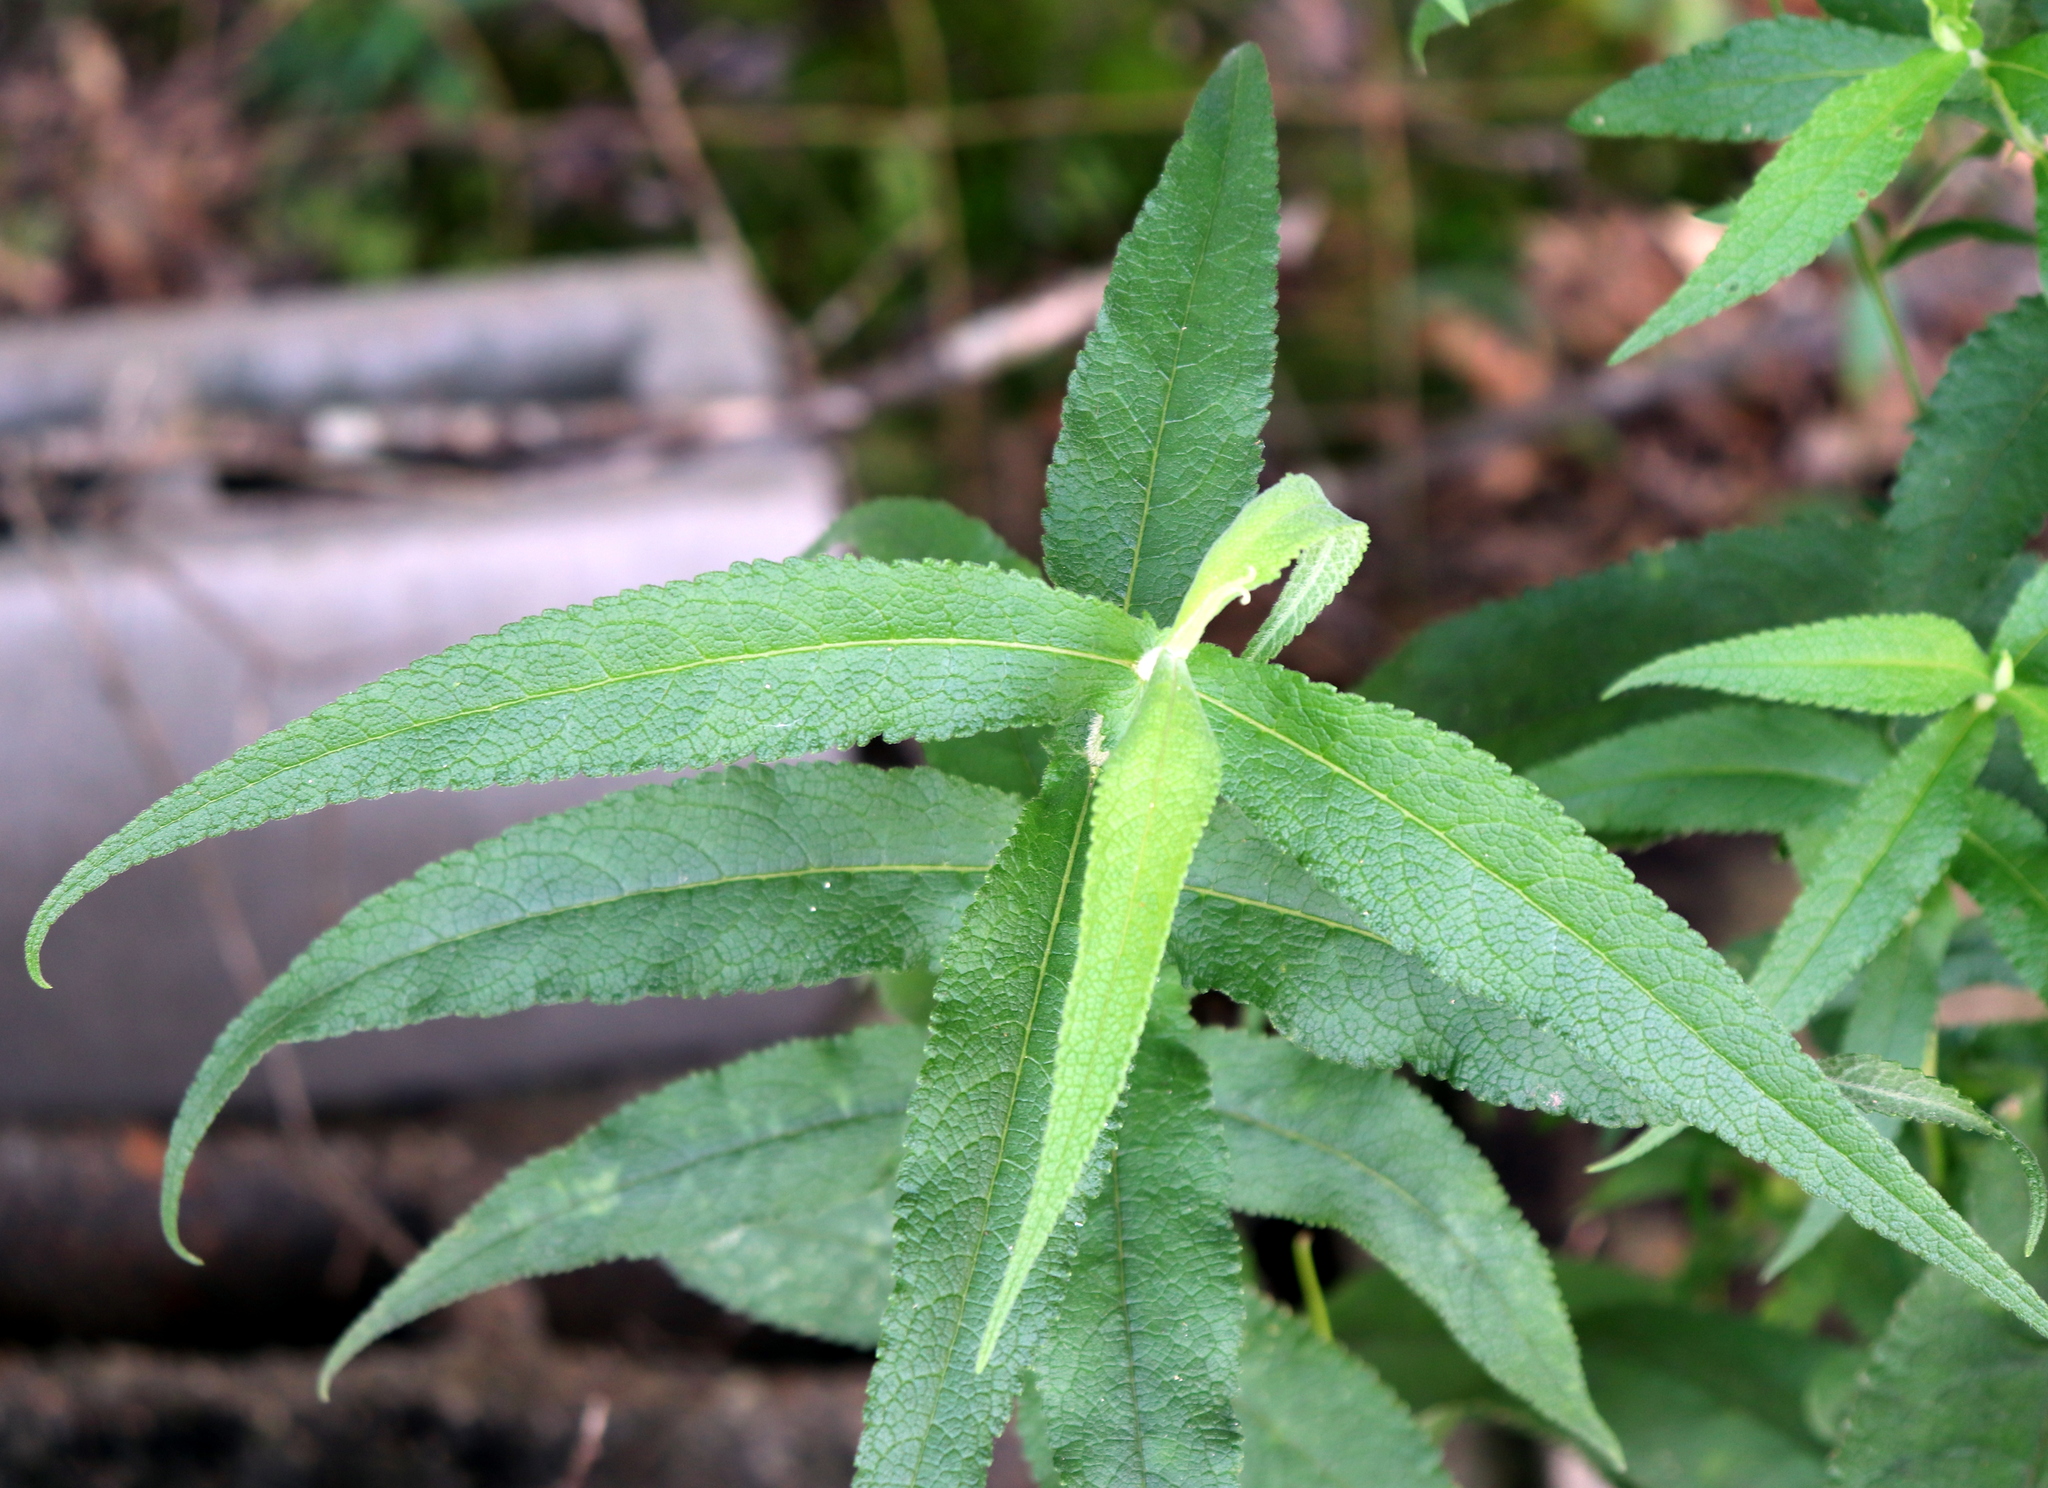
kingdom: Plantae
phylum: Tracheophyta
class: Magnoliopsida
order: Asterales
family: Asteraceae
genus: Eupatorium
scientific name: Eupatorium perfoliatum
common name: Boneset
